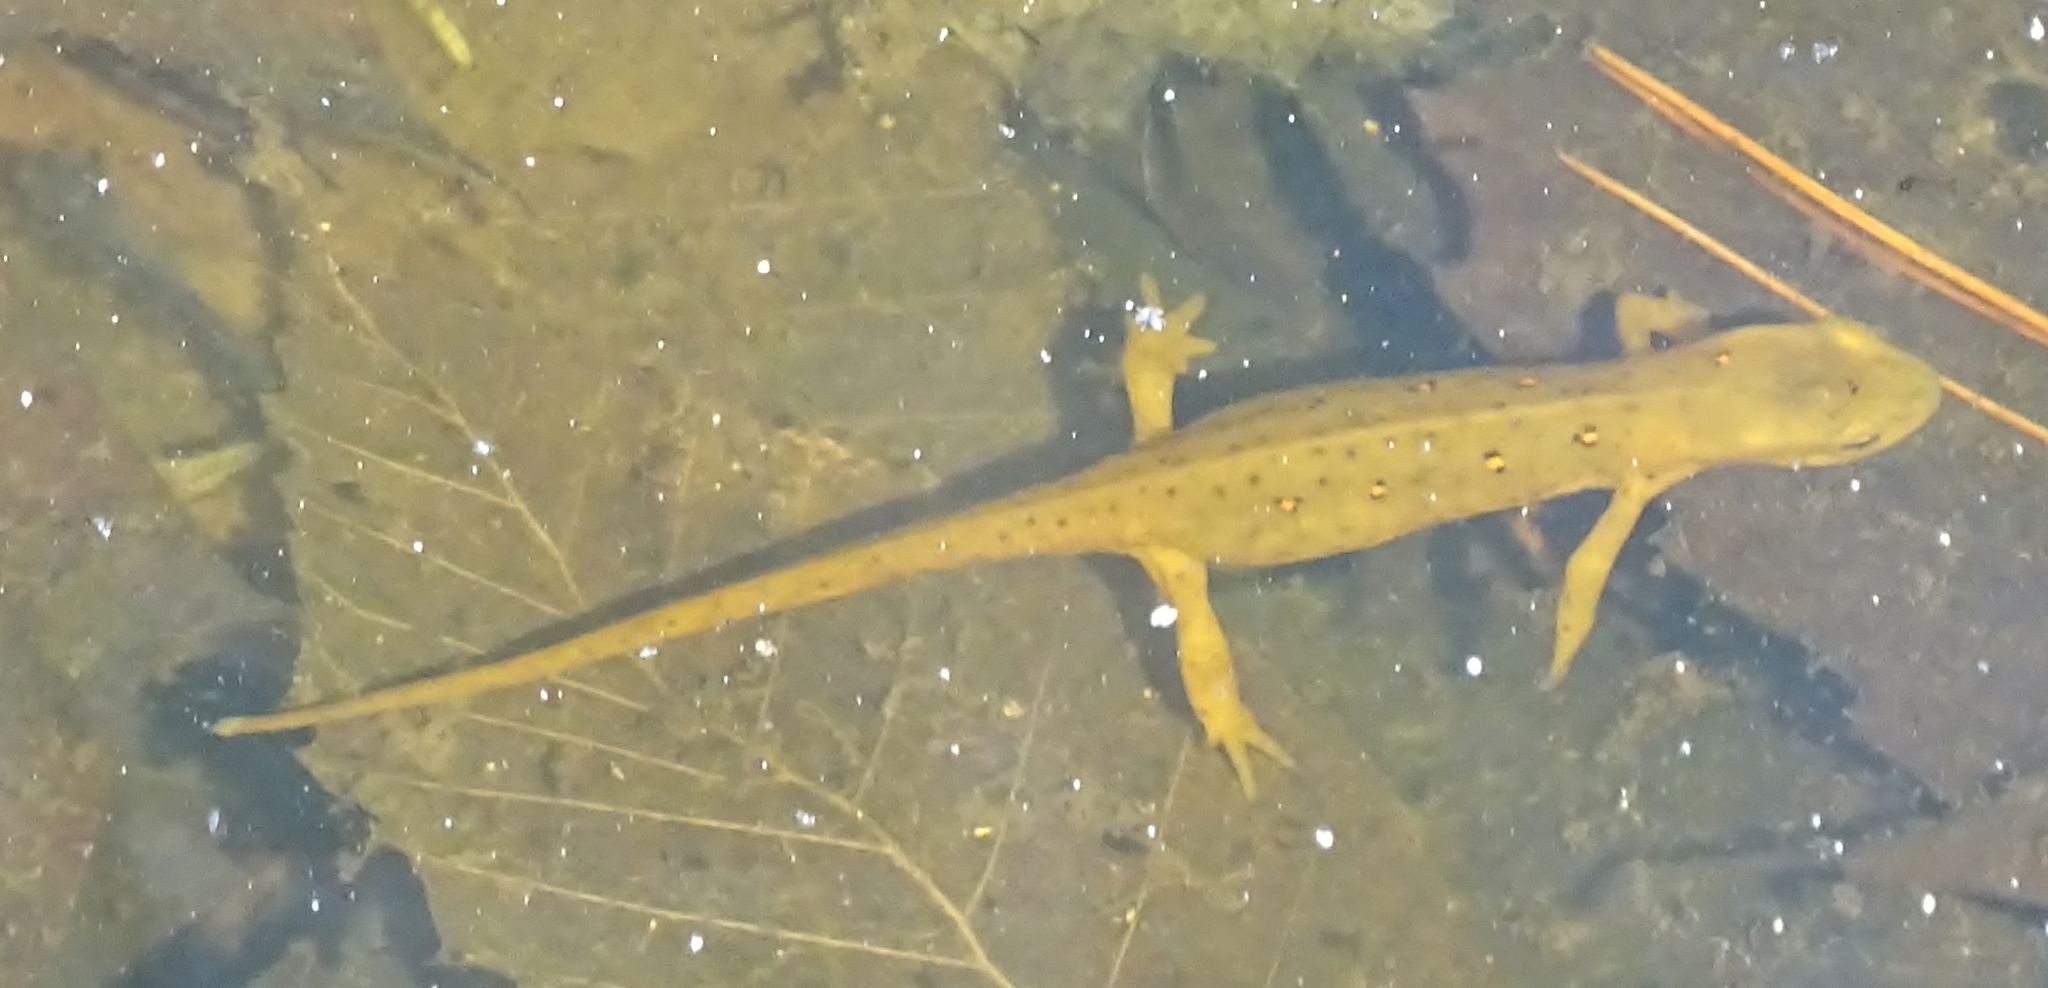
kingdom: Animalia
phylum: Chordata
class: Amphibia
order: Caudata
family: Salamandridae
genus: Notophthalmus
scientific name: Notophthalmus viridescens
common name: Eastern newt
